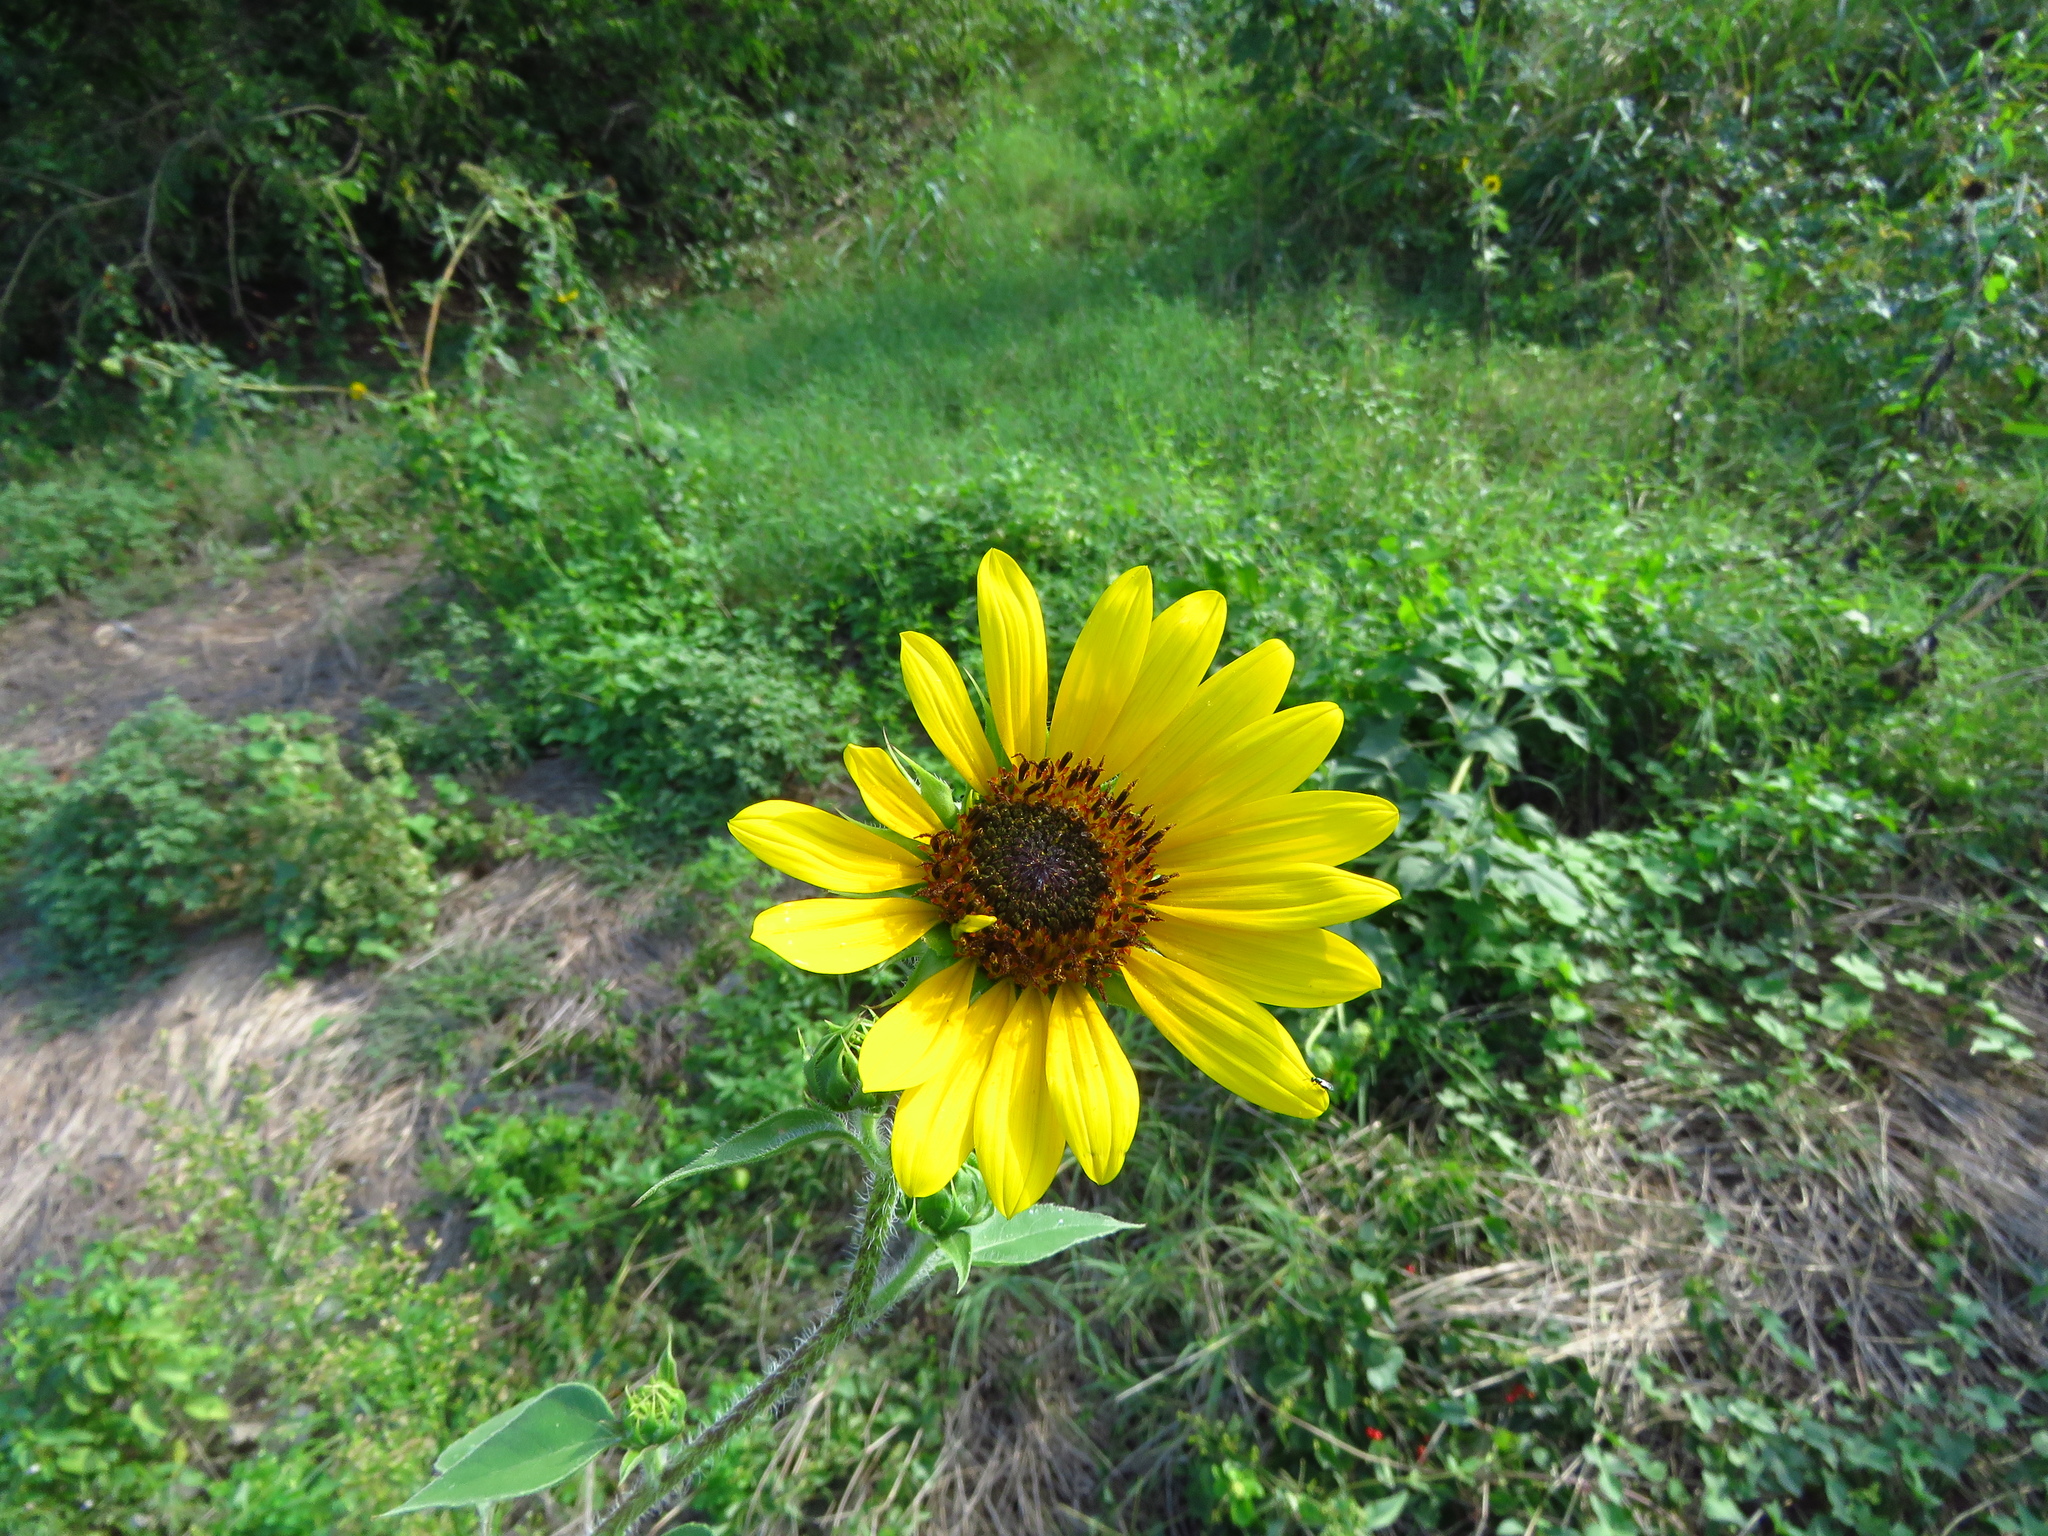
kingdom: Plantae
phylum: Tracheophyta
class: Magnoliopsida
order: Asterales
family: Asteraceae
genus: Helianthus
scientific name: Helianthus annuus
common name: Sunflower
